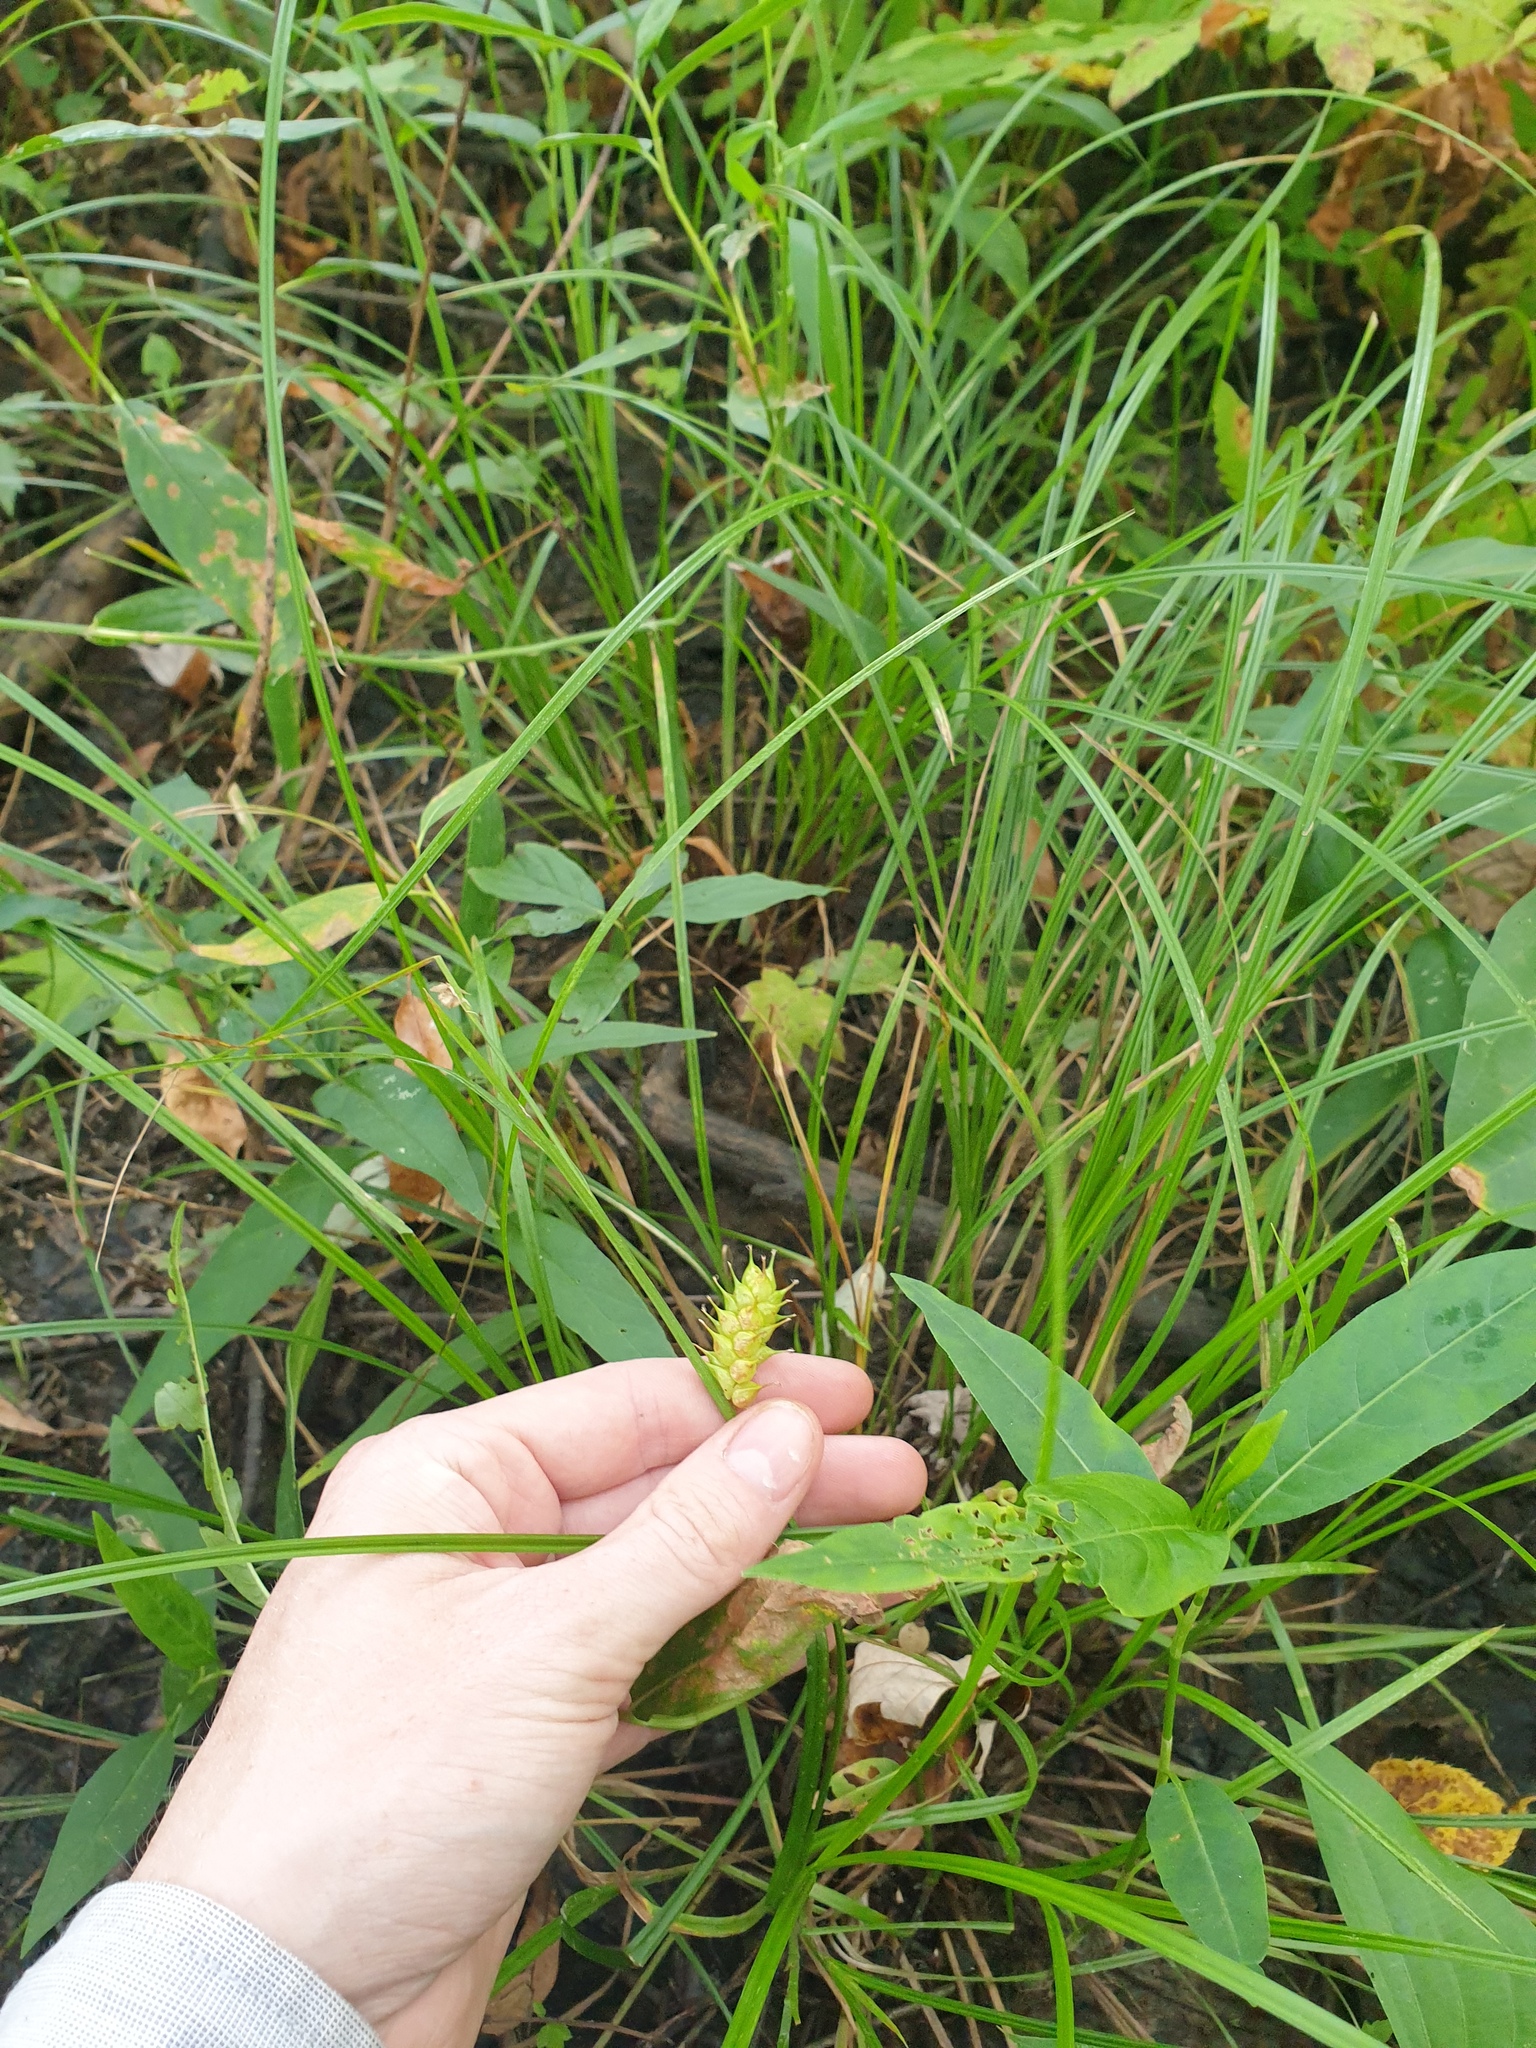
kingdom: Plantae
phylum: Tracheophyta
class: Liliopsida
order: Poales
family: Cyperaceae
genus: Carex
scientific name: Carex vesicaria
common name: Bladder-sedge
